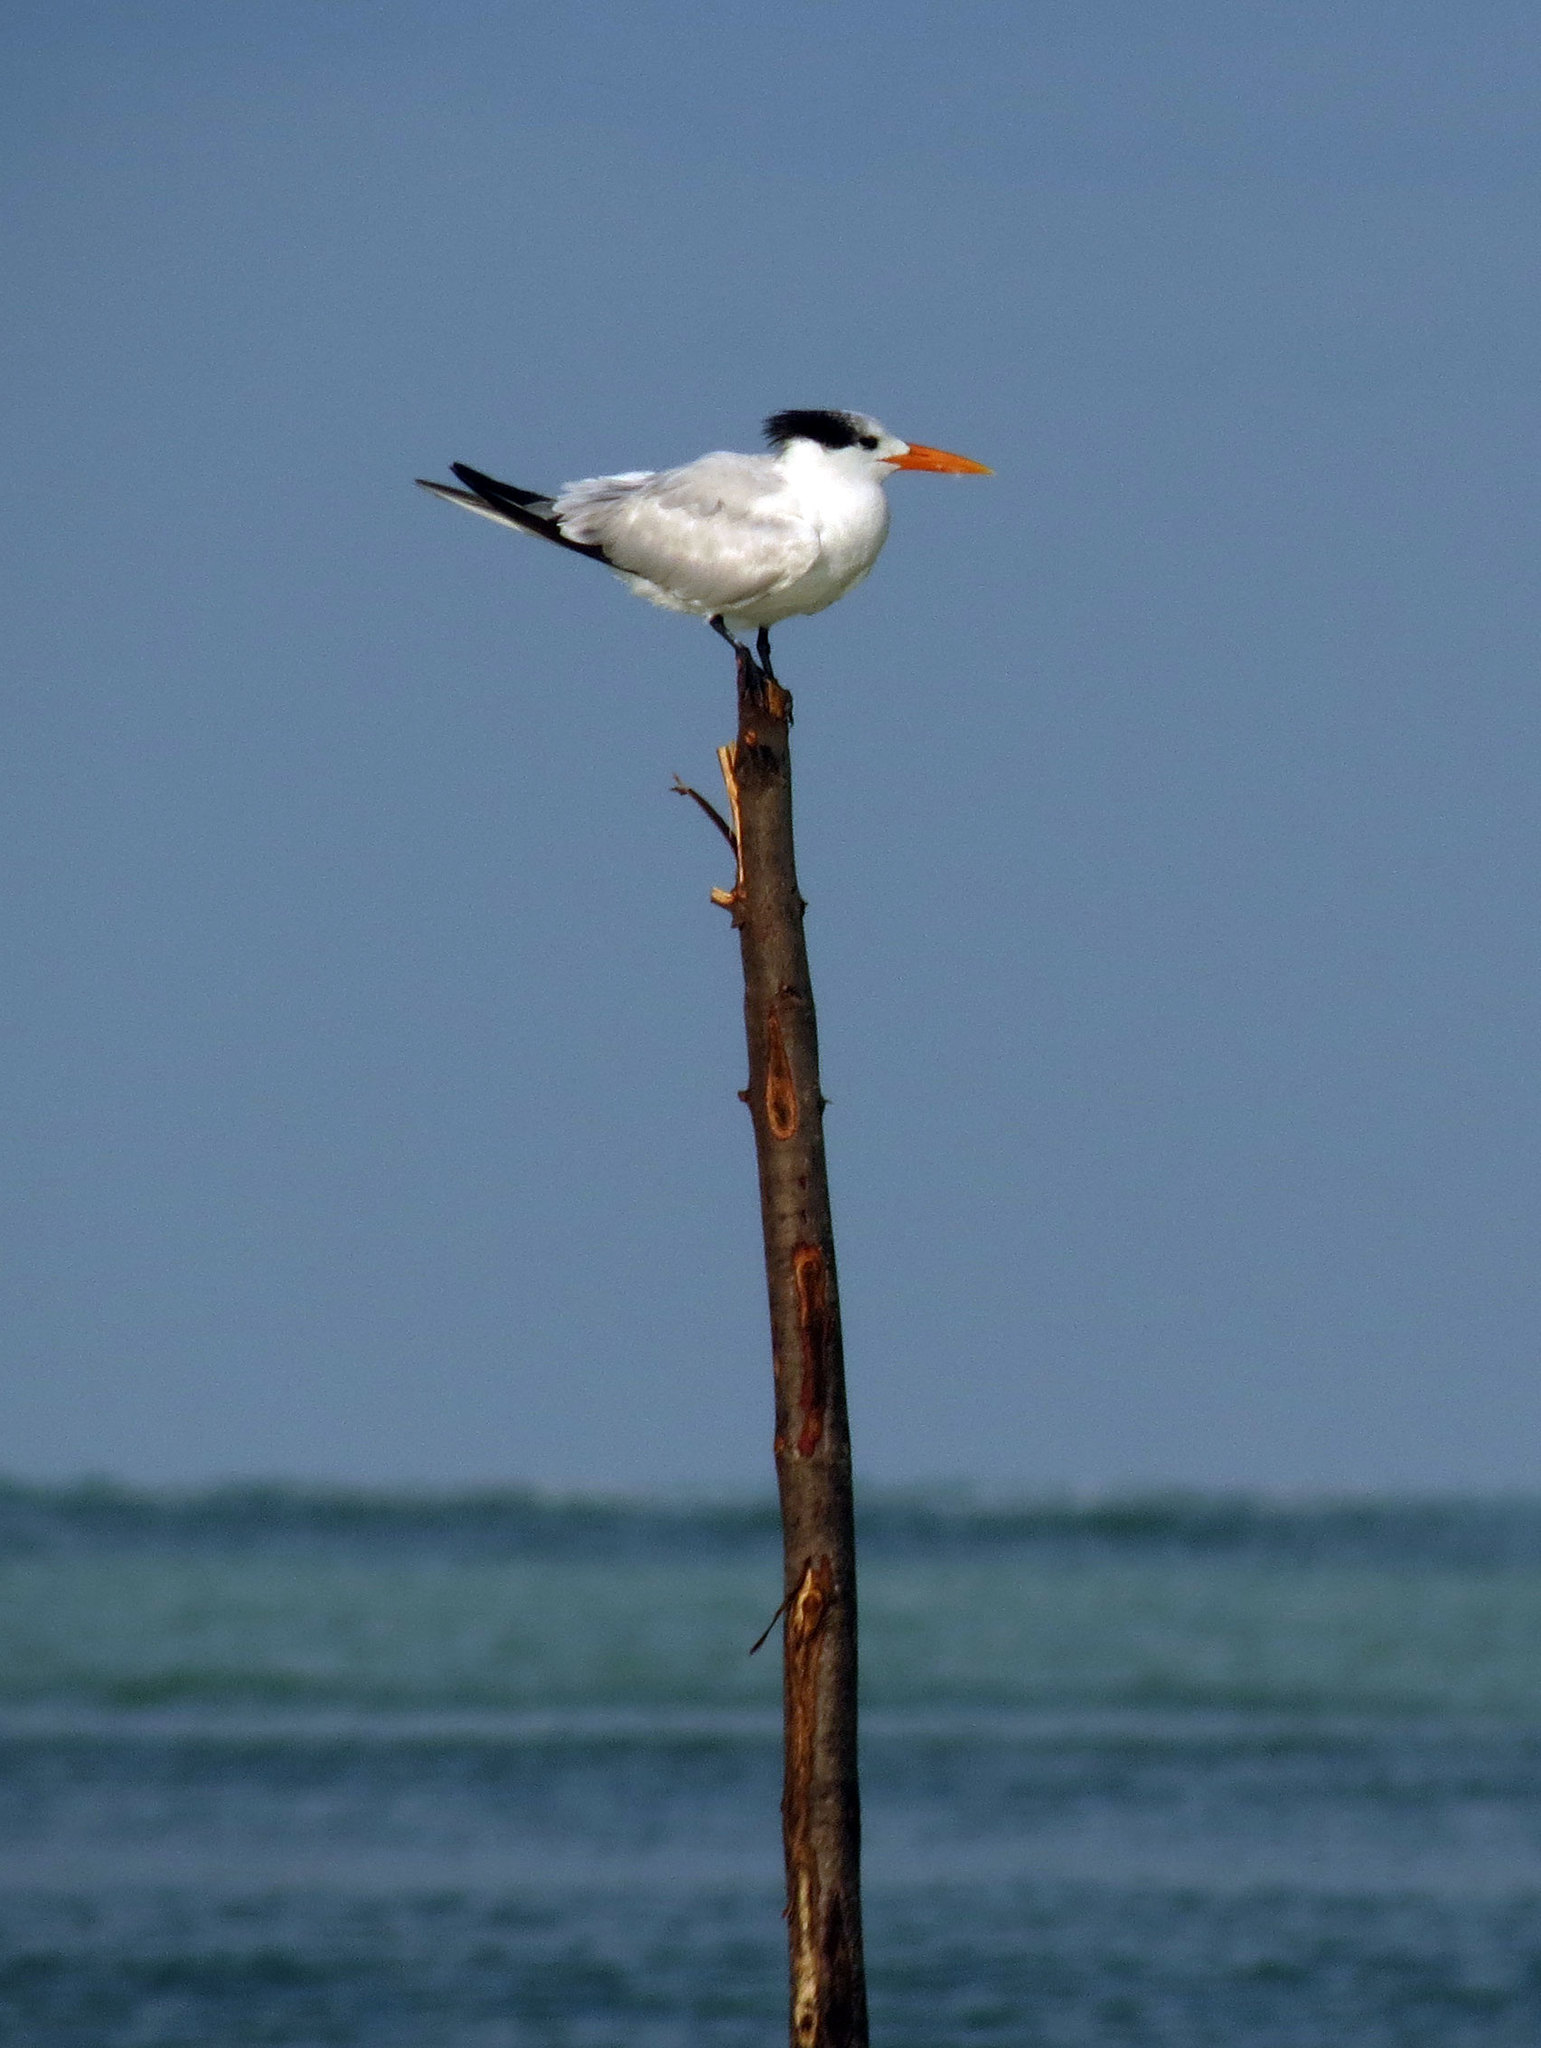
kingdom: Animalia
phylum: Chordata
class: Aves
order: Charadriiformes
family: Laridae
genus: Thalasseus
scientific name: Thalasseus maximus
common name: Royal tern
